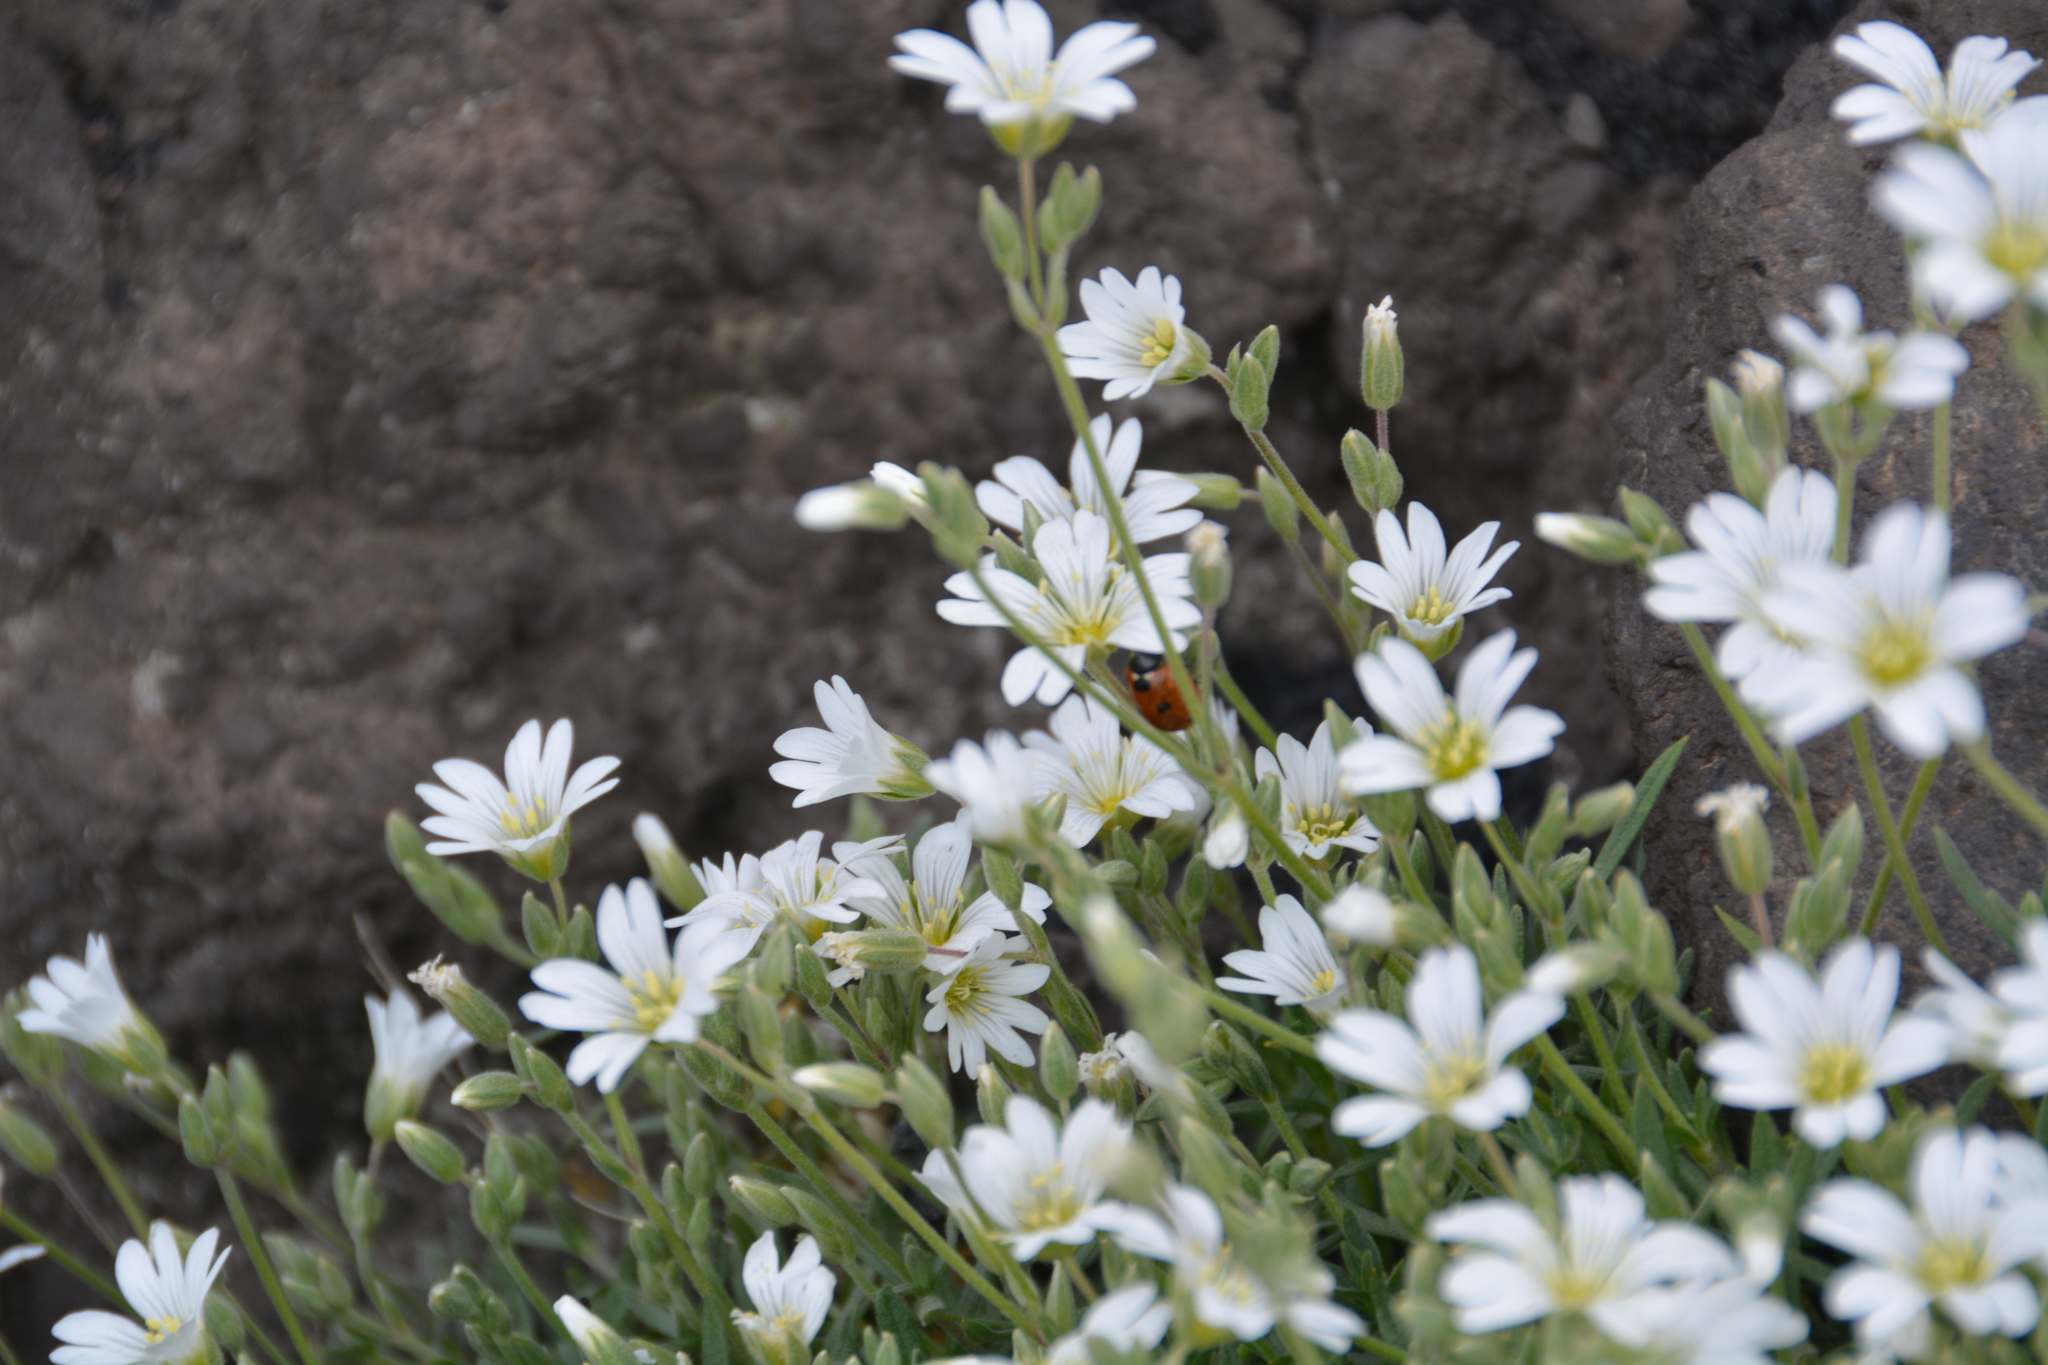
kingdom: Plantae
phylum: Tracheophyta
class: Magnoliopsida
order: Caryophyllales
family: Caryophyllaceae
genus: Cerastium
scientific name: Cerastium tomentosum
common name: Snow-in-summer
